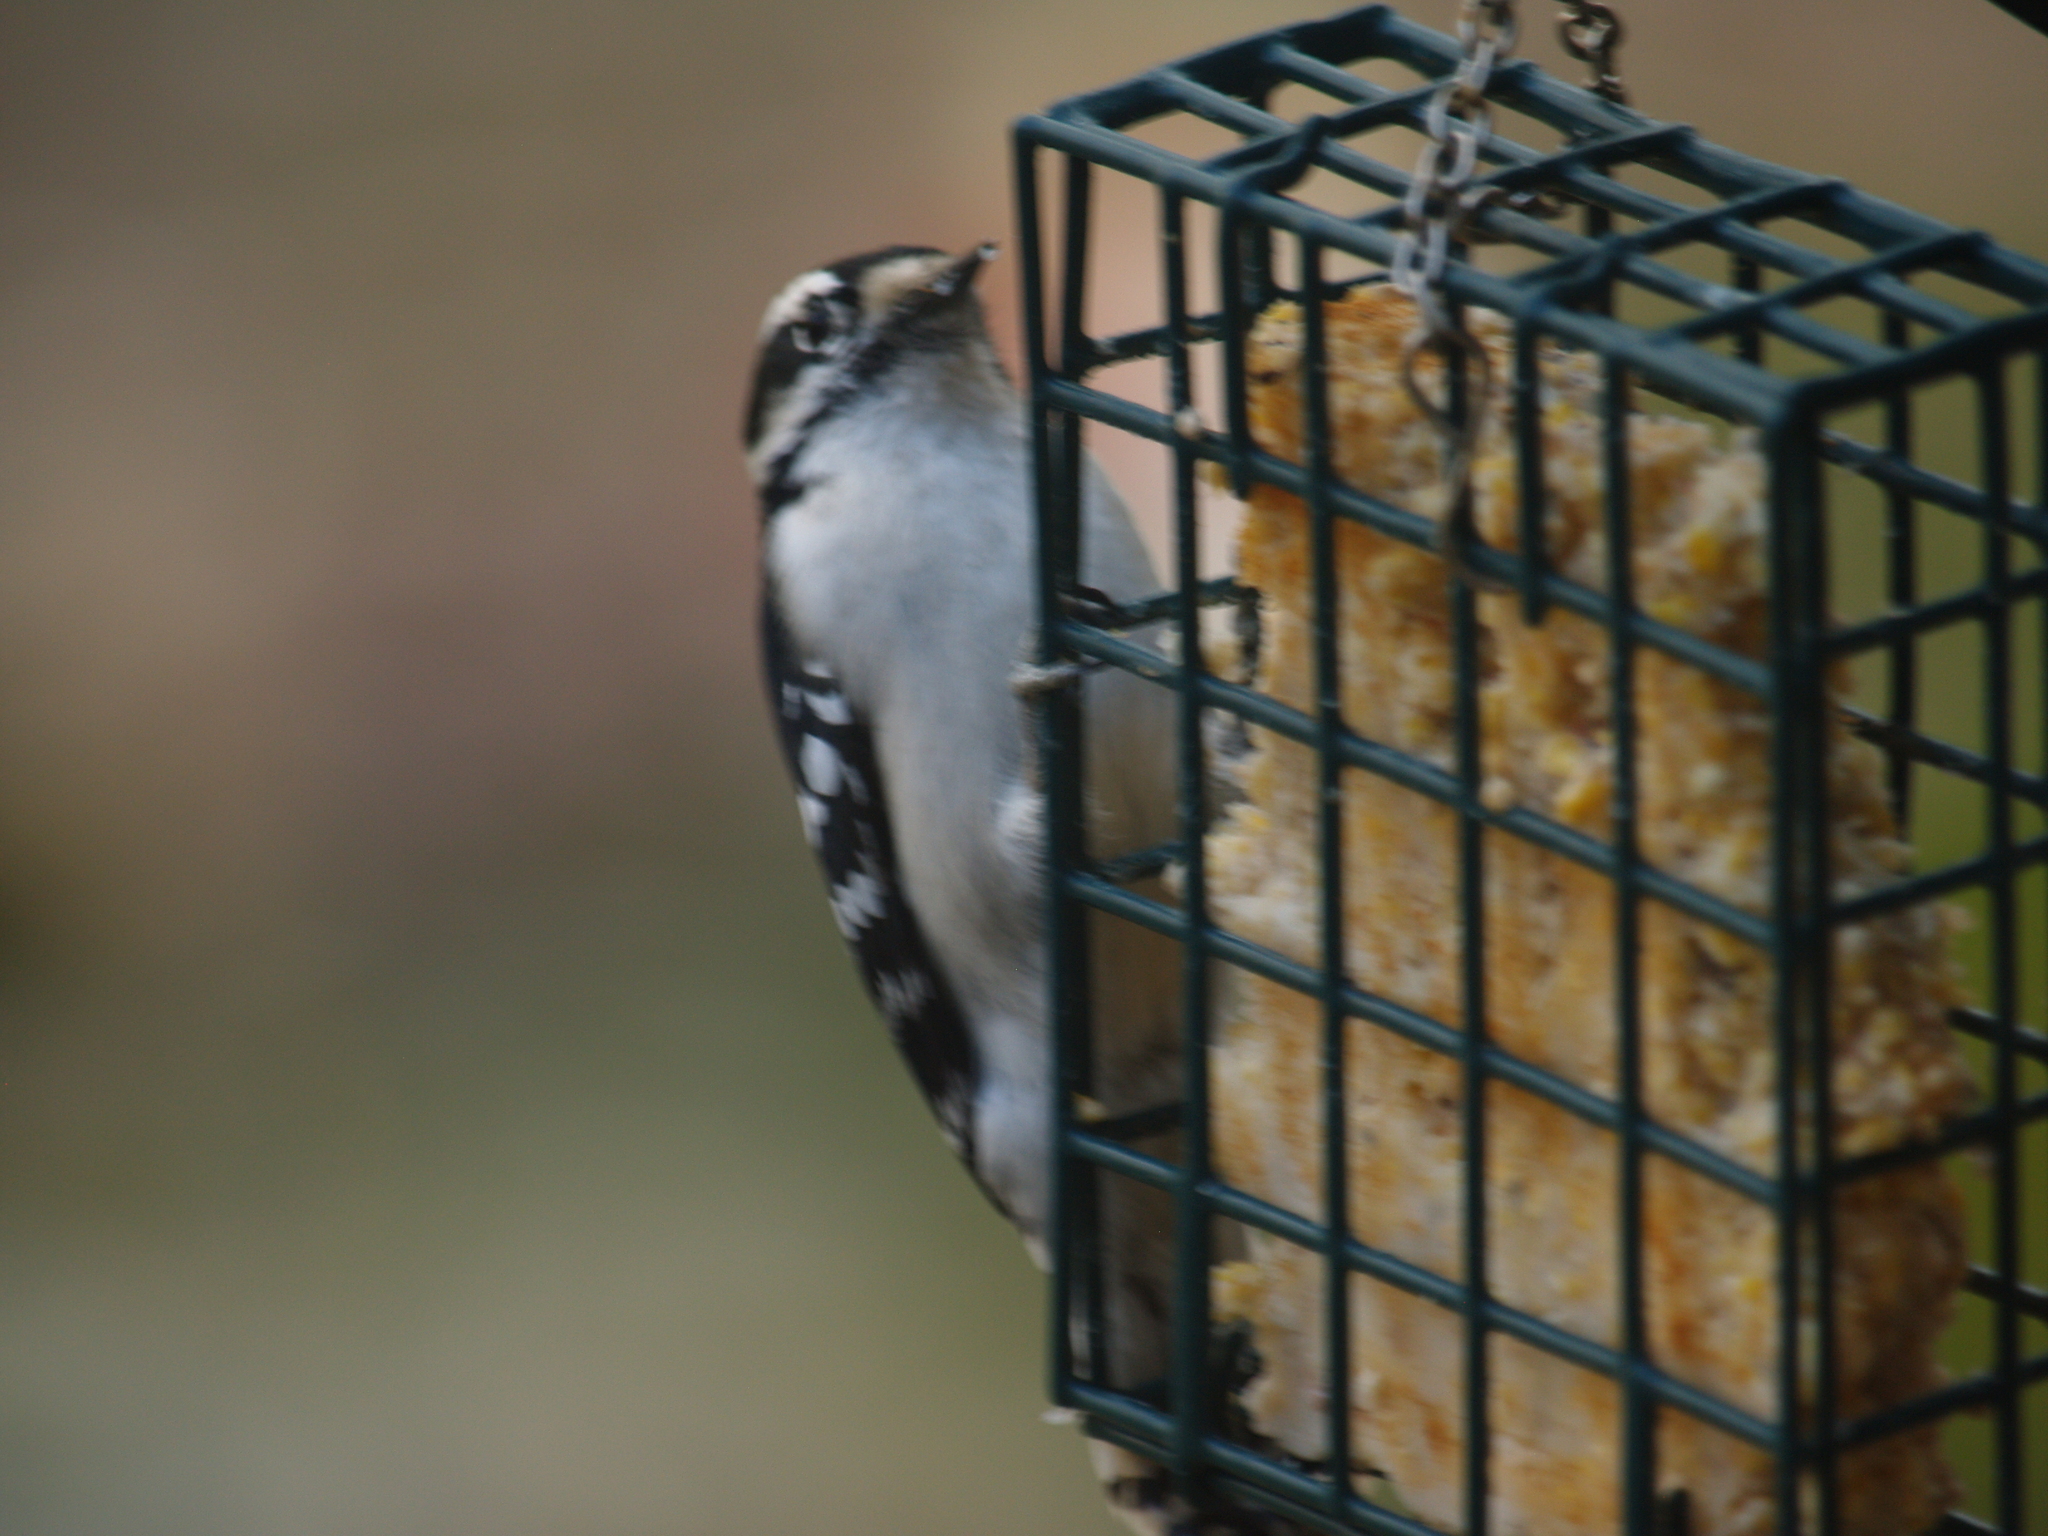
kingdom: Animalia
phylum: Chordata
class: Aves
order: Piciformes
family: Picidae
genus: Dryobates
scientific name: Dryobates pubescens
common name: Downy woodpecker
